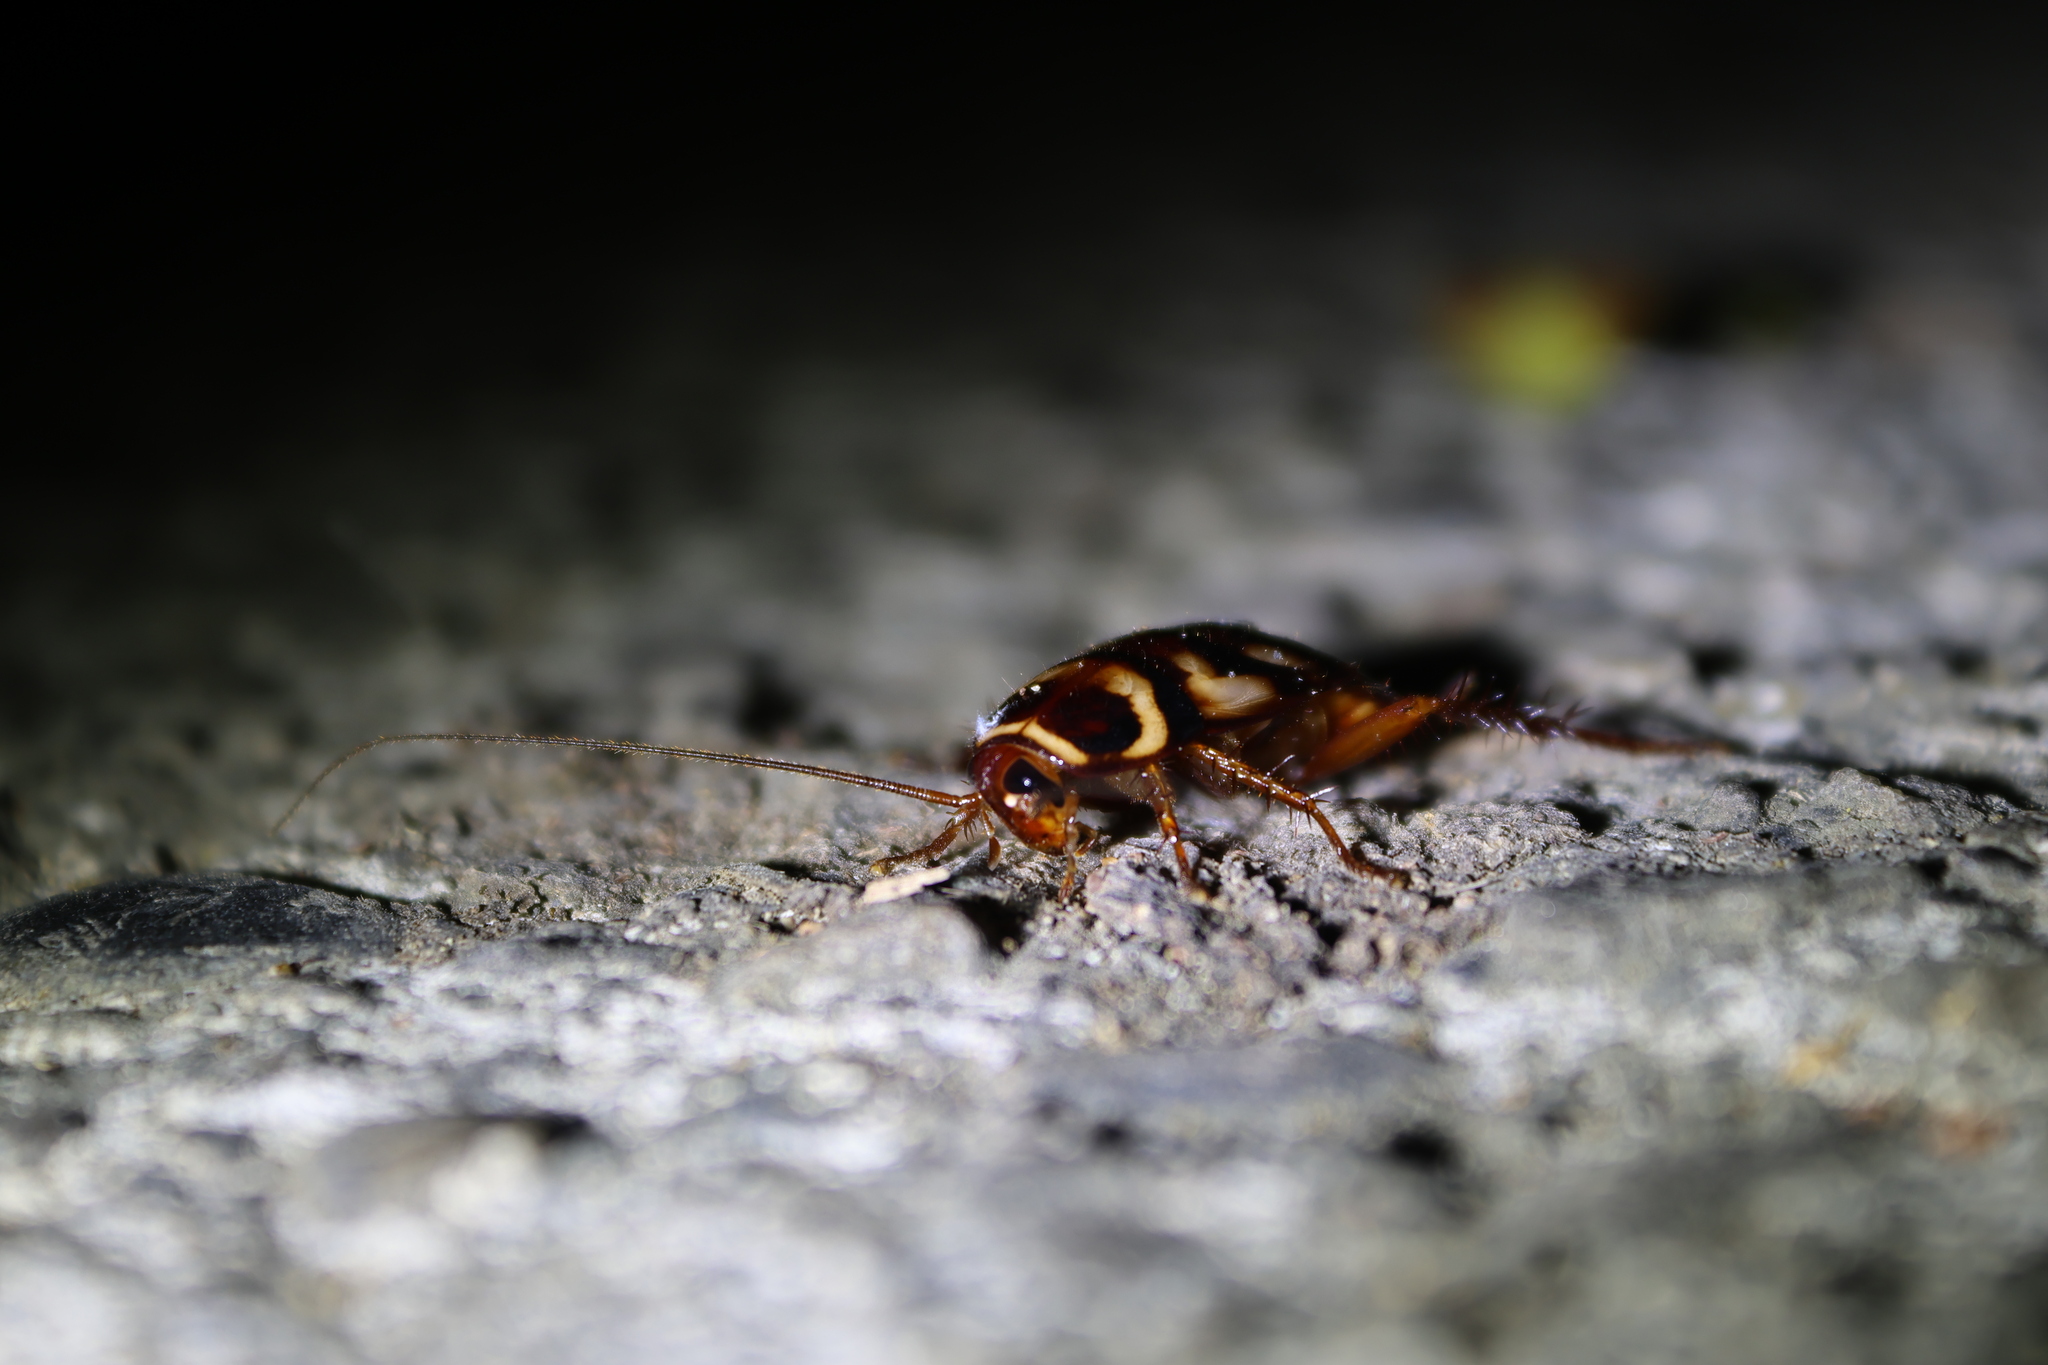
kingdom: Animalia
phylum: Arthropoda
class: Insecta
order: Blattodea
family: Blattidae
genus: Periplaneta
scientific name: Periplaneta australasiae
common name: Australian cockroach
